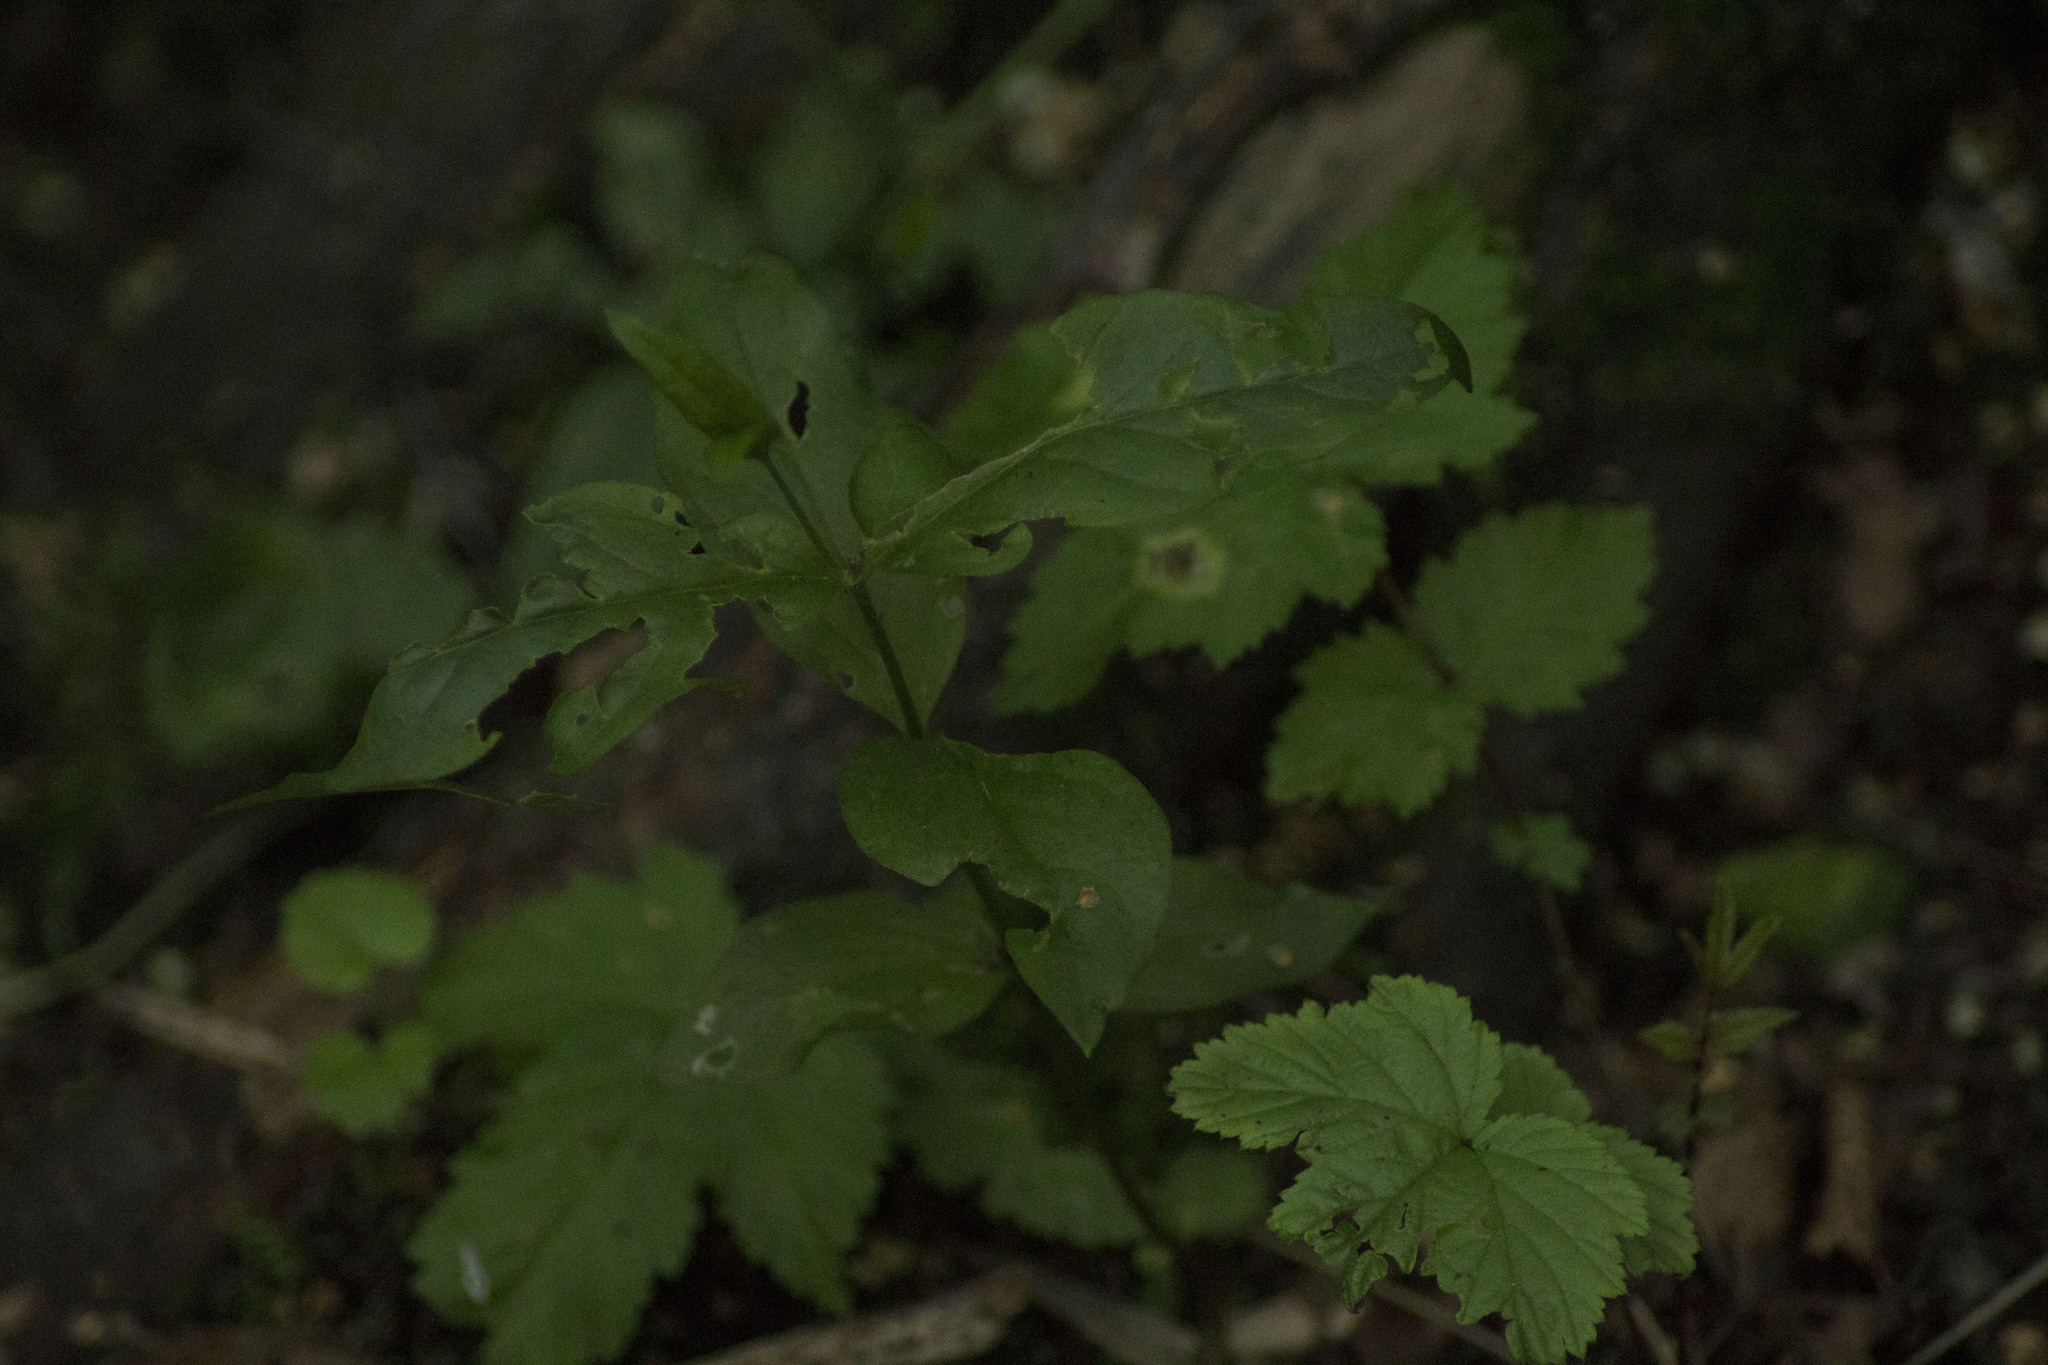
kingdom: Plantae
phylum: Tracheophyta
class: Magnoliopsida
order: Ericales
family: Primulaceae
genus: Lysimachia
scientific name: Lysimachia vulgaris
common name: Yellow loosestrife
